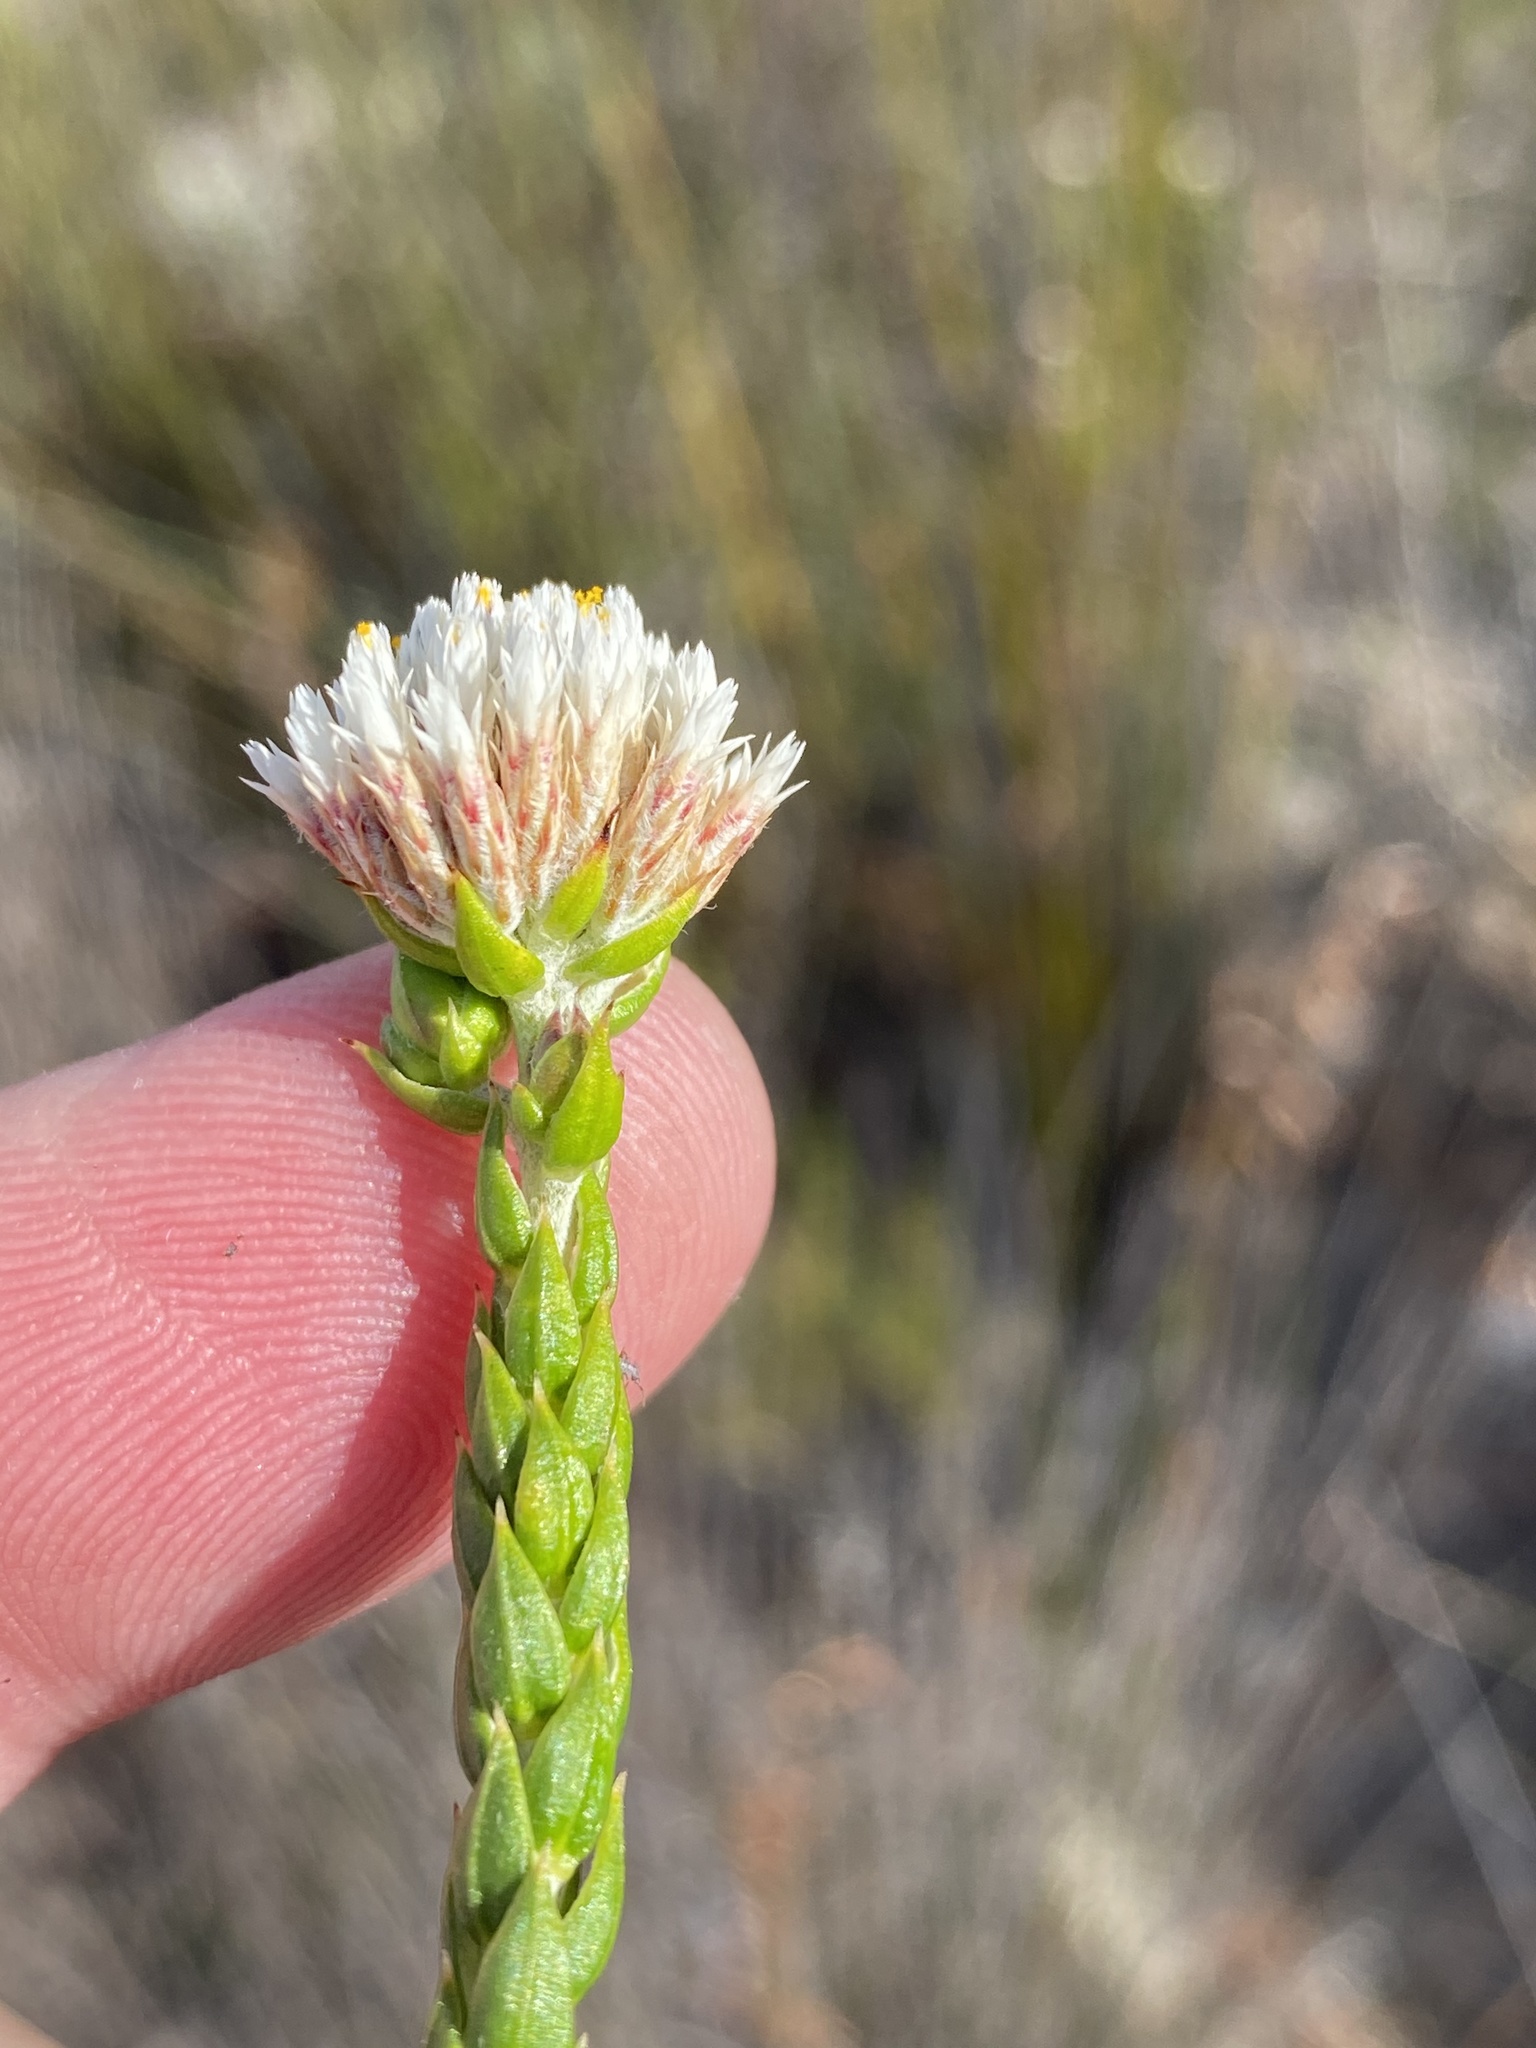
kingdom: Plantae
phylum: Tracheophyta
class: Magnoliopsida
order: Asterales
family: Asteraceae
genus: Metalasia
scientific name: Metalasia pulcherrima
